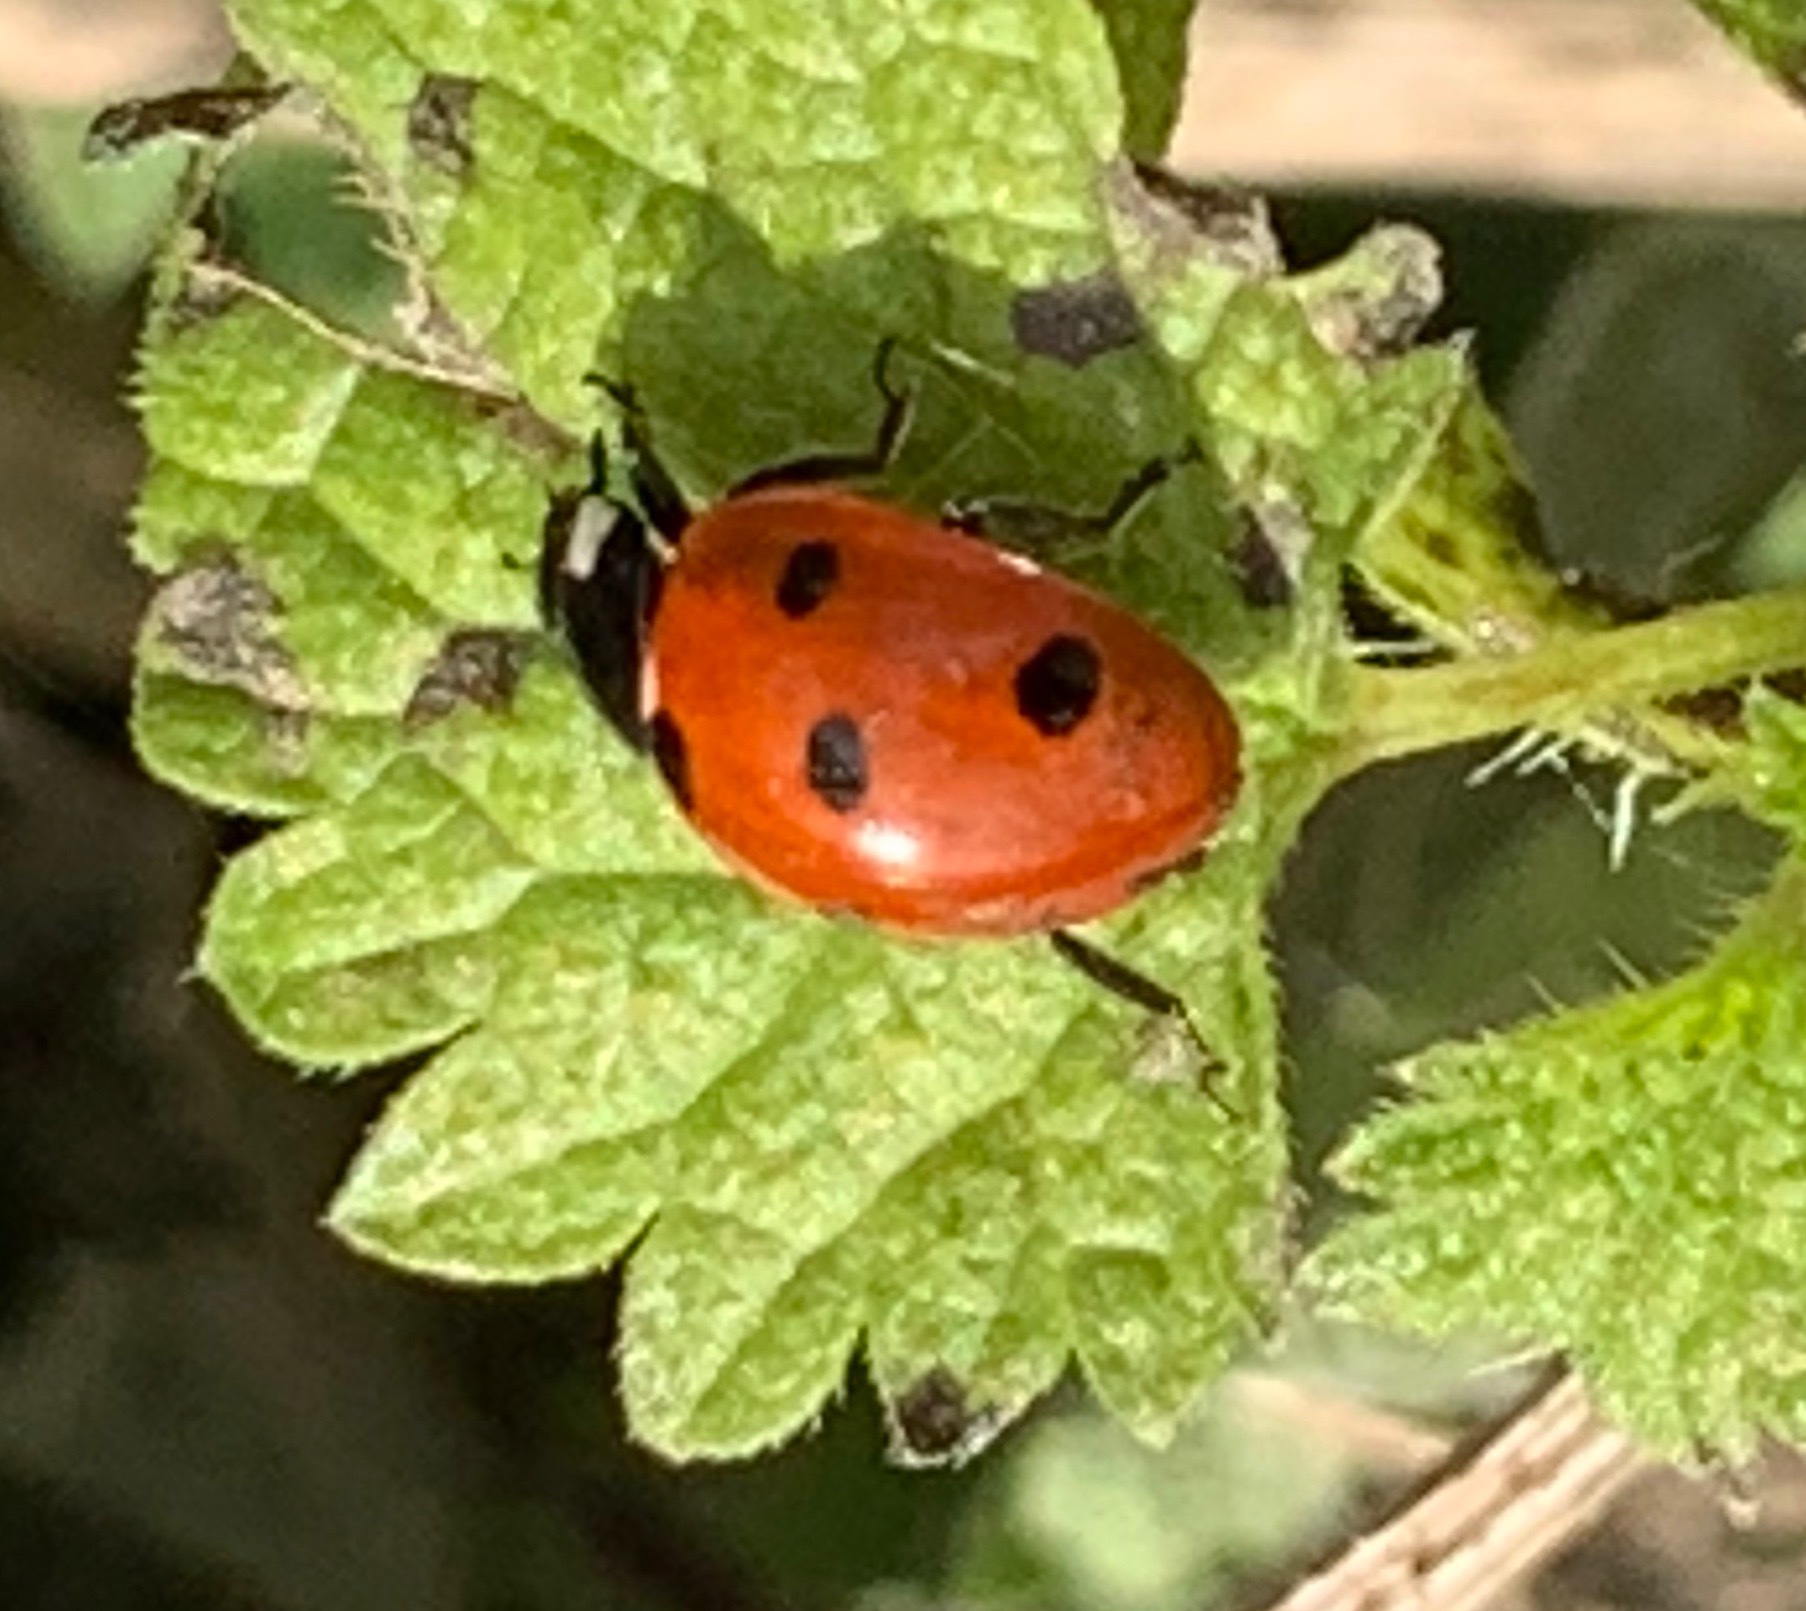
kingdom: Animalia
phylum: Arthropoda
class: Insecta
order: Coleoptera
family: Coccinellidae
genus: Coccinella
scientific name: Coccinella septempunctata
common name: Sevenspotted lady beetle
